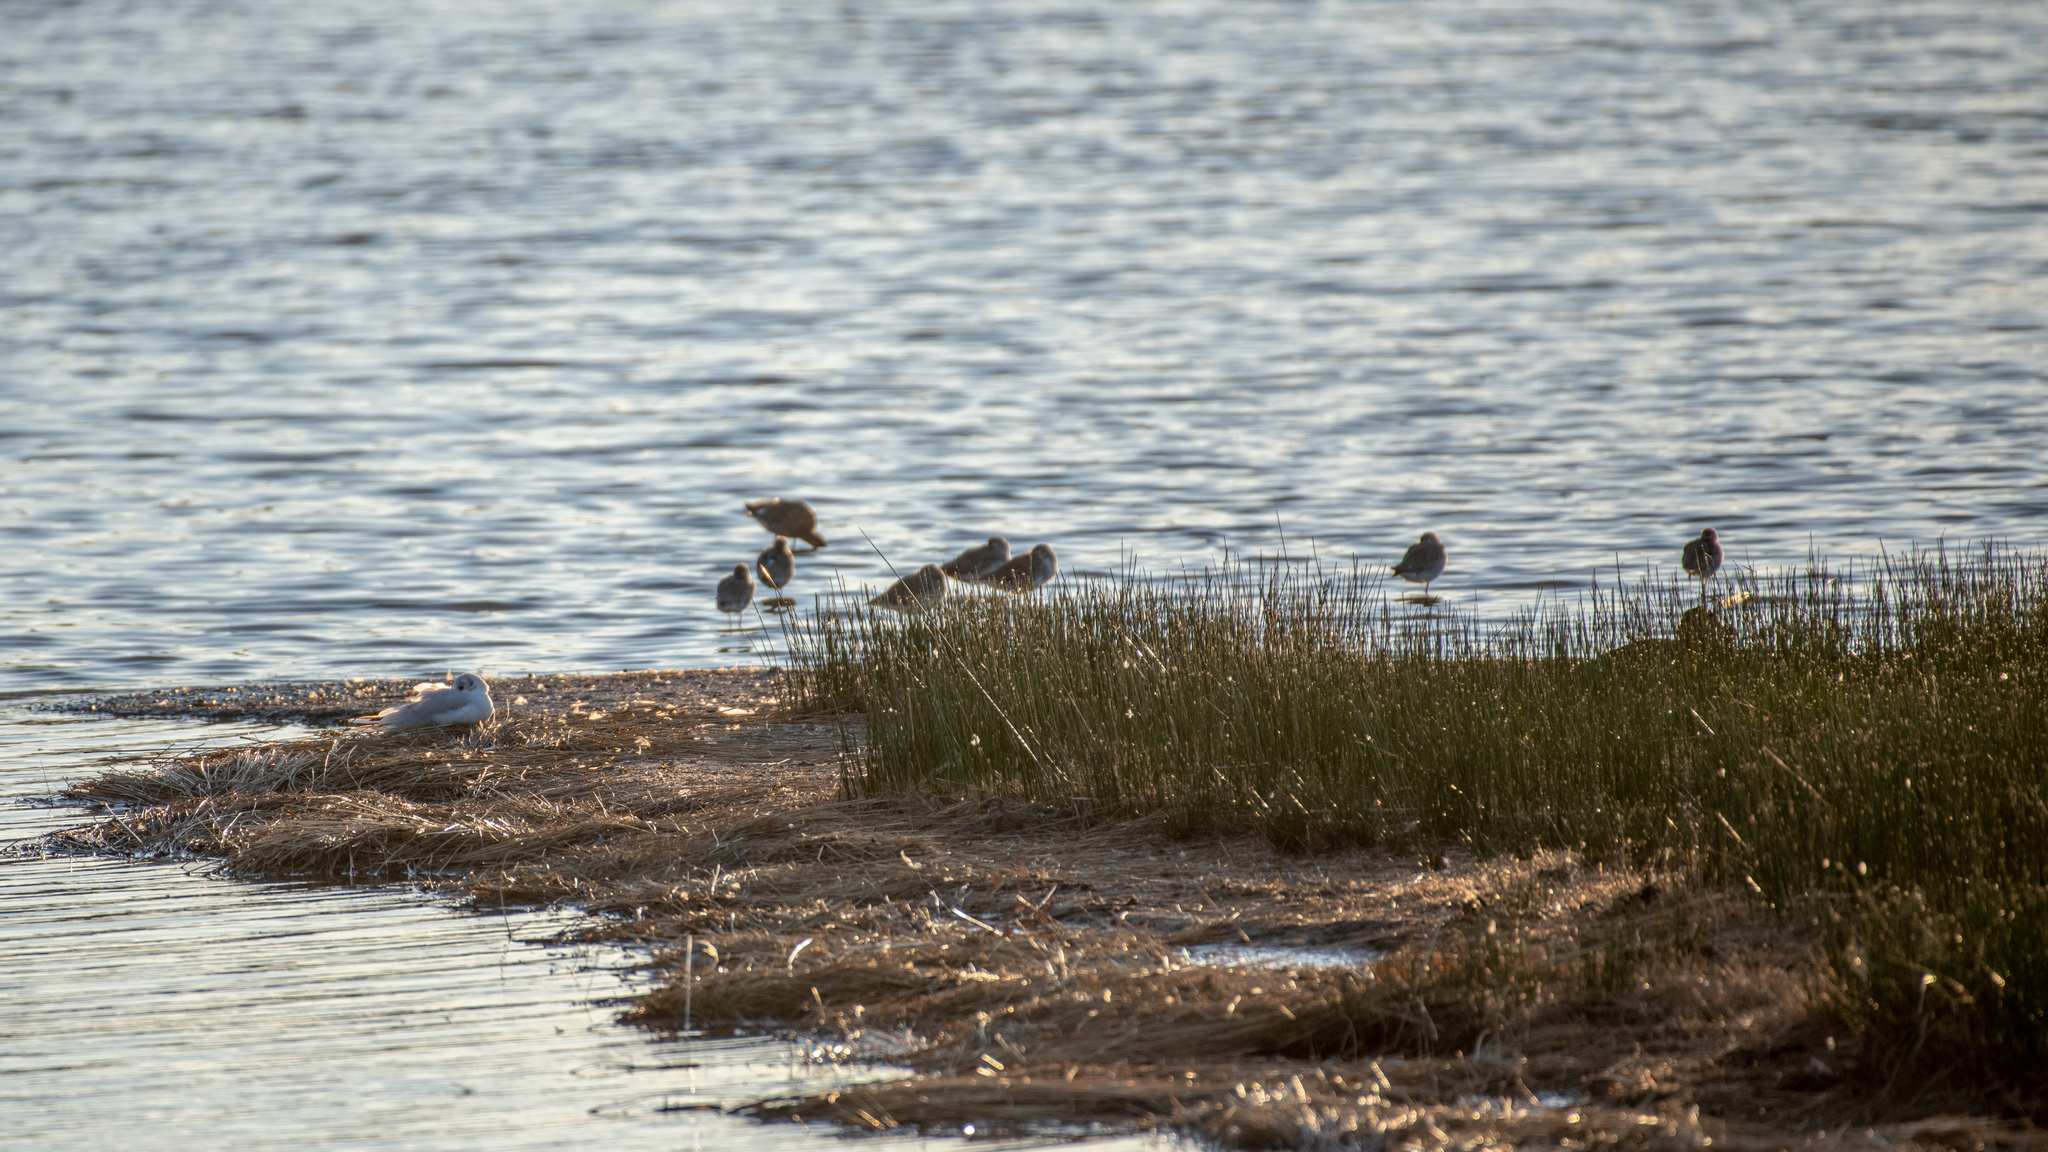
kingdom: Animalia
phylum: Chordata
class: Aves
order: Charadriiformes
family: Scolopacidae
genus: Tringa
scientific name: Tringa erythropus
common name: Spotted redshank
